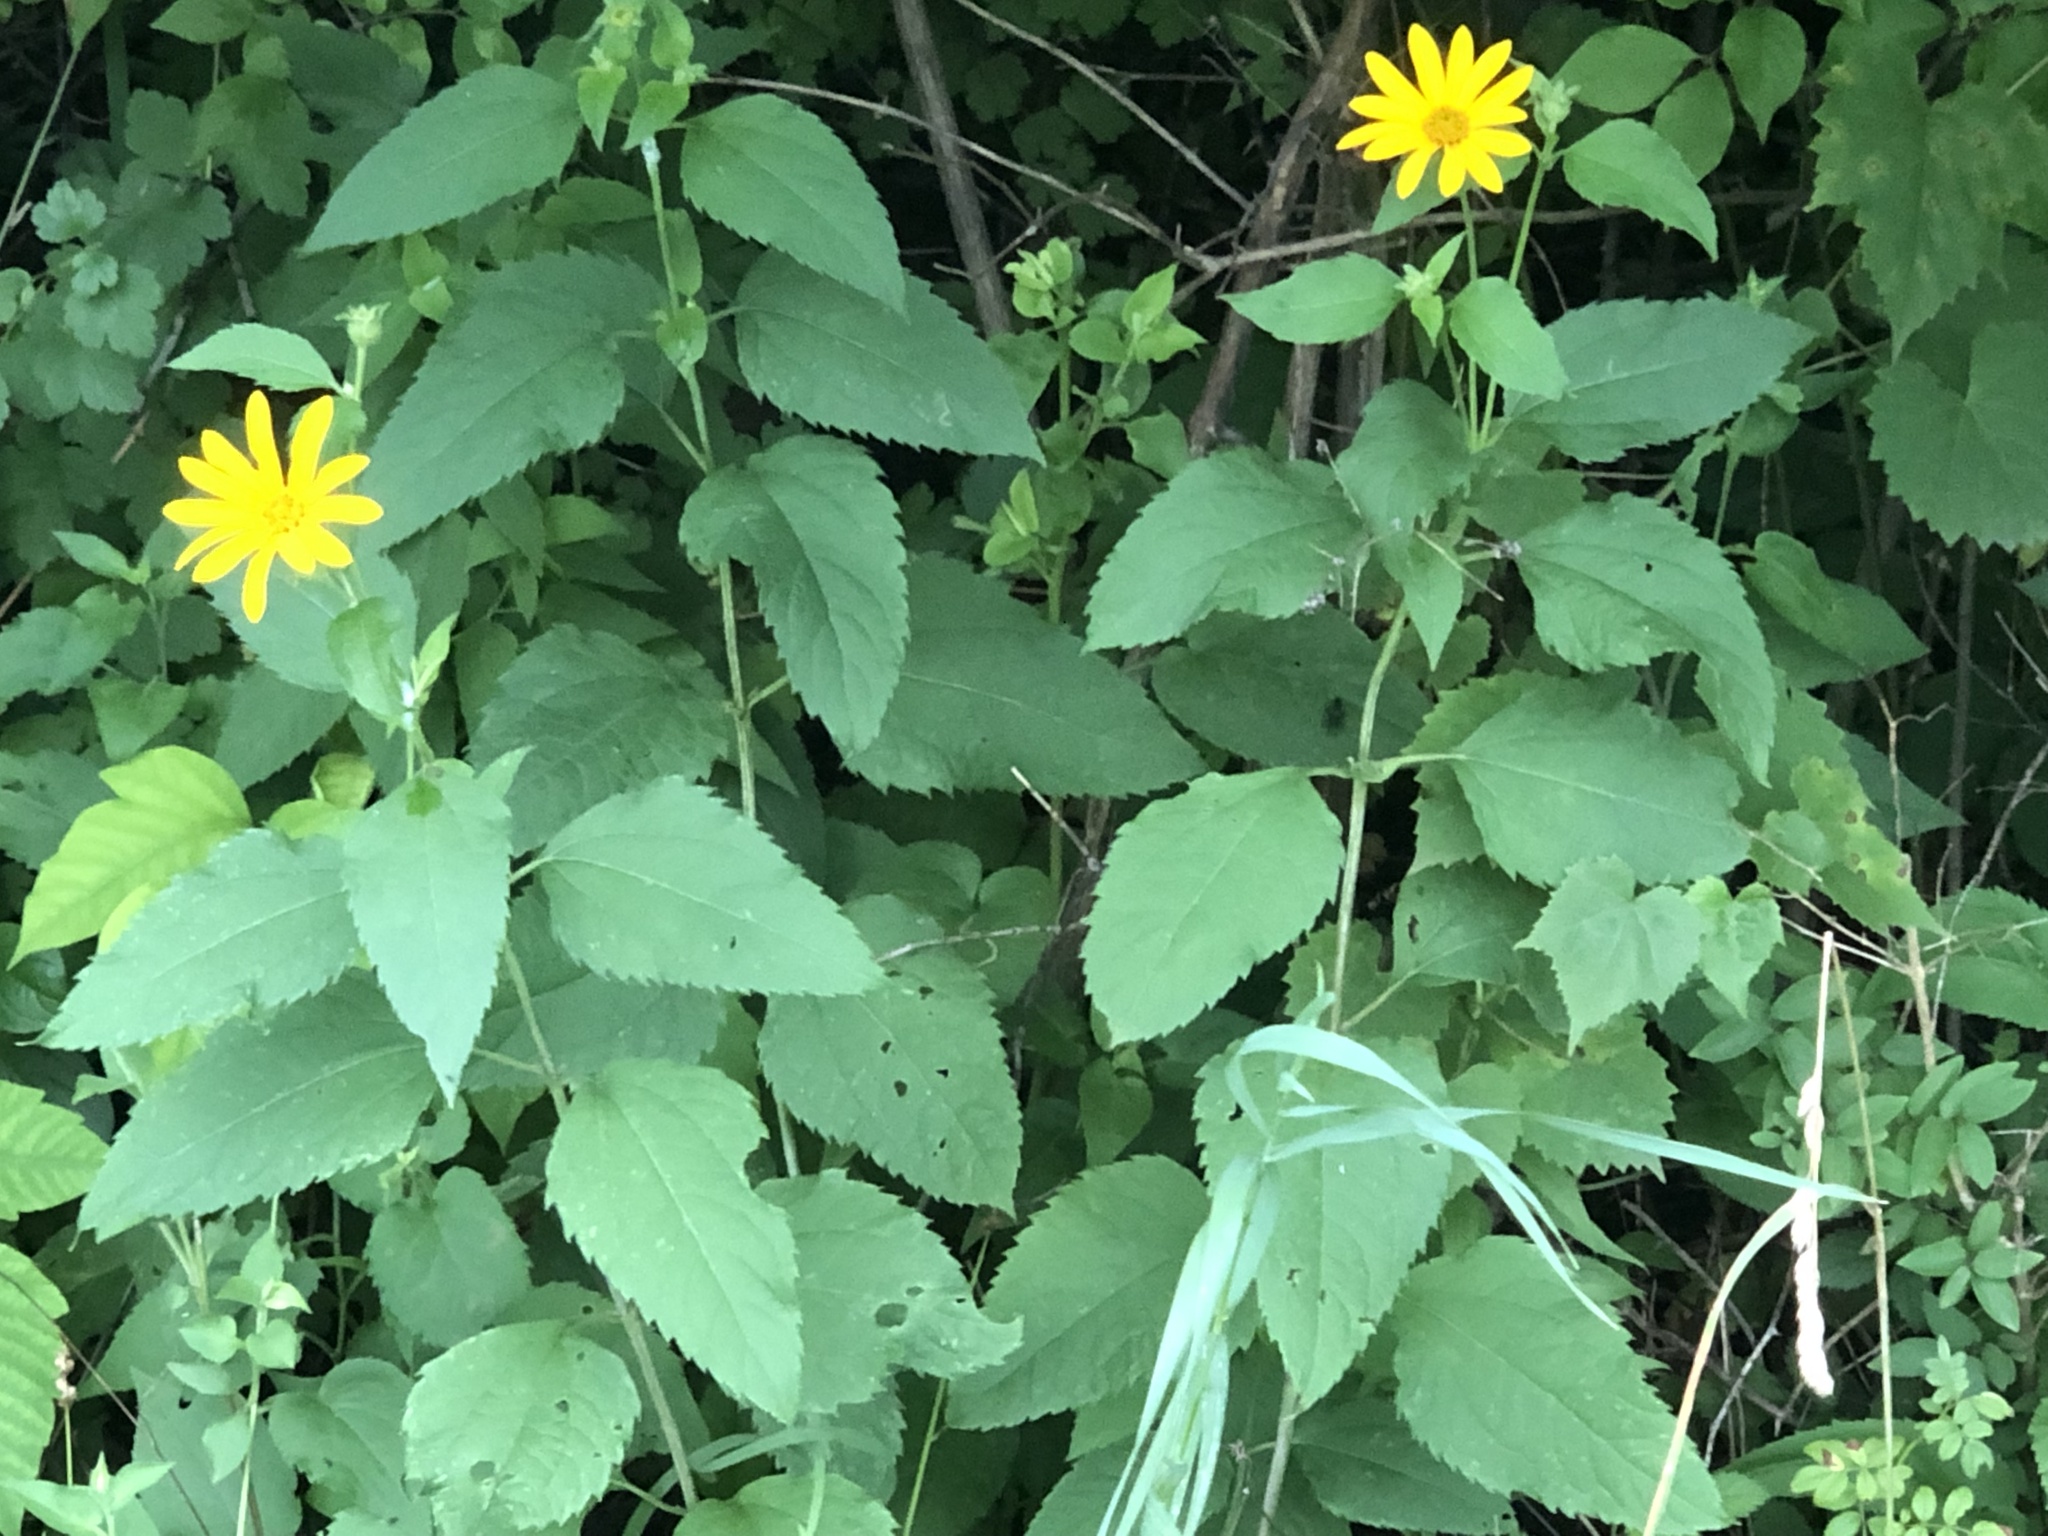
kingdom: Plantae
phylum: Tracheophyta
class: Magnoliopsida
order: Asterales
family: Asteraceae
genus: Heliopsis
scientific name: Heliopsis helianthoides
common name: False sunflower
